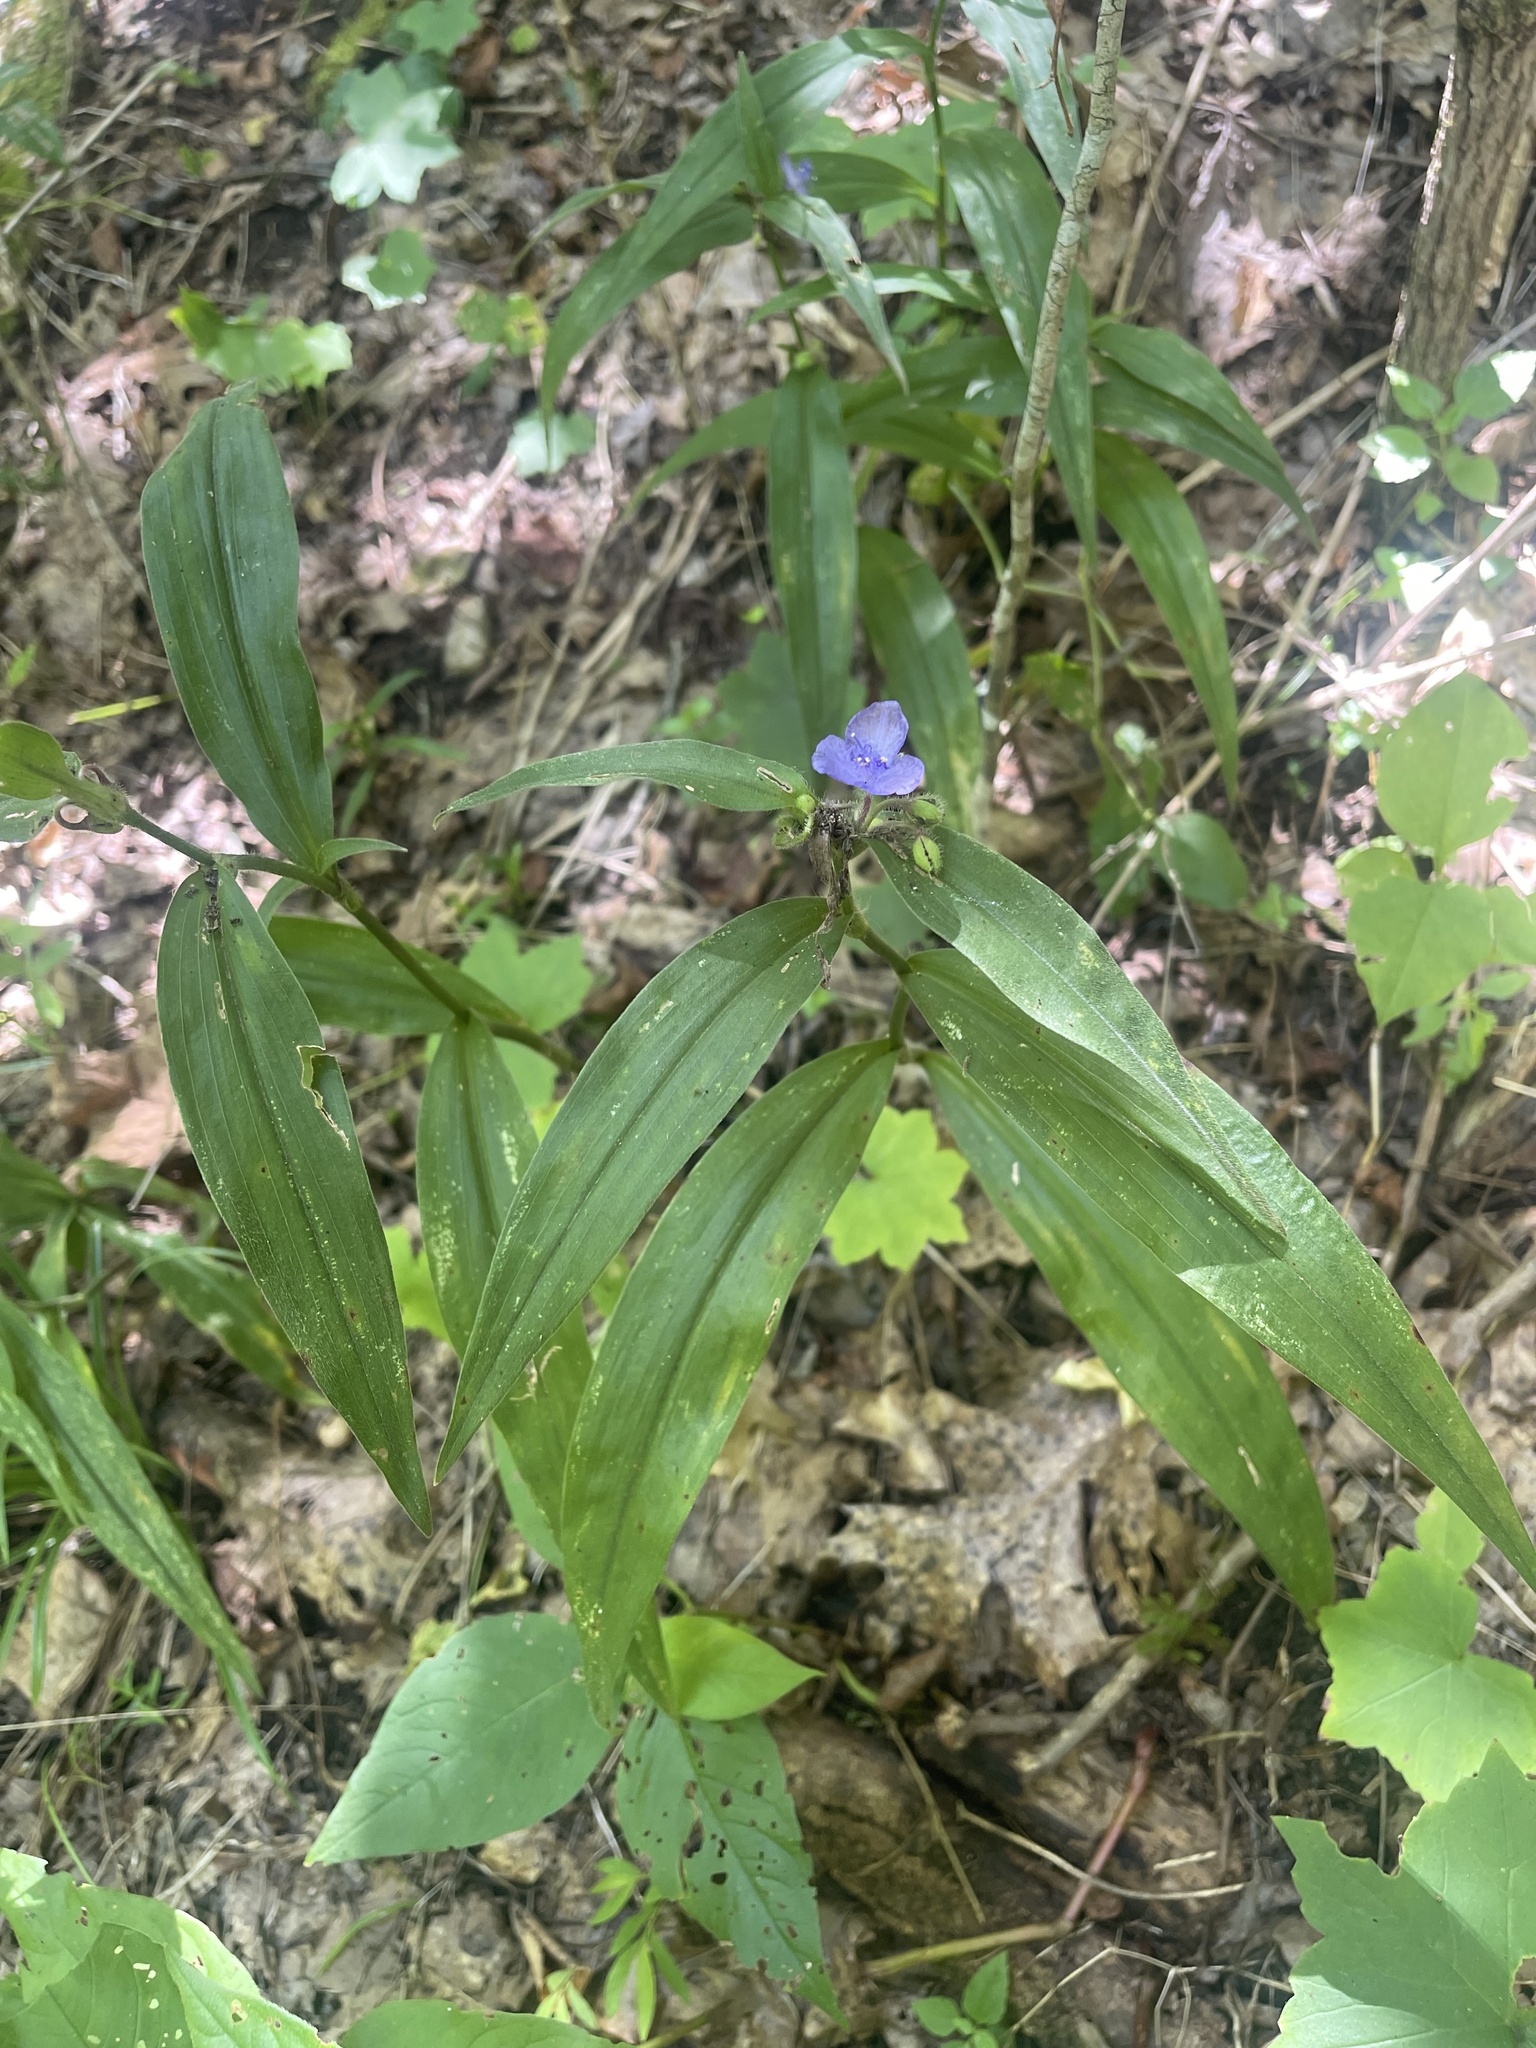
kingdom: Plantae
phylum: Tracheophyta
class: Liliopsida
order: Commelinales
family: Commelinaceae
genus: Tradescantia
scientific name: Tradescantia subaspera
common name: Wide-leaf spiderwort
